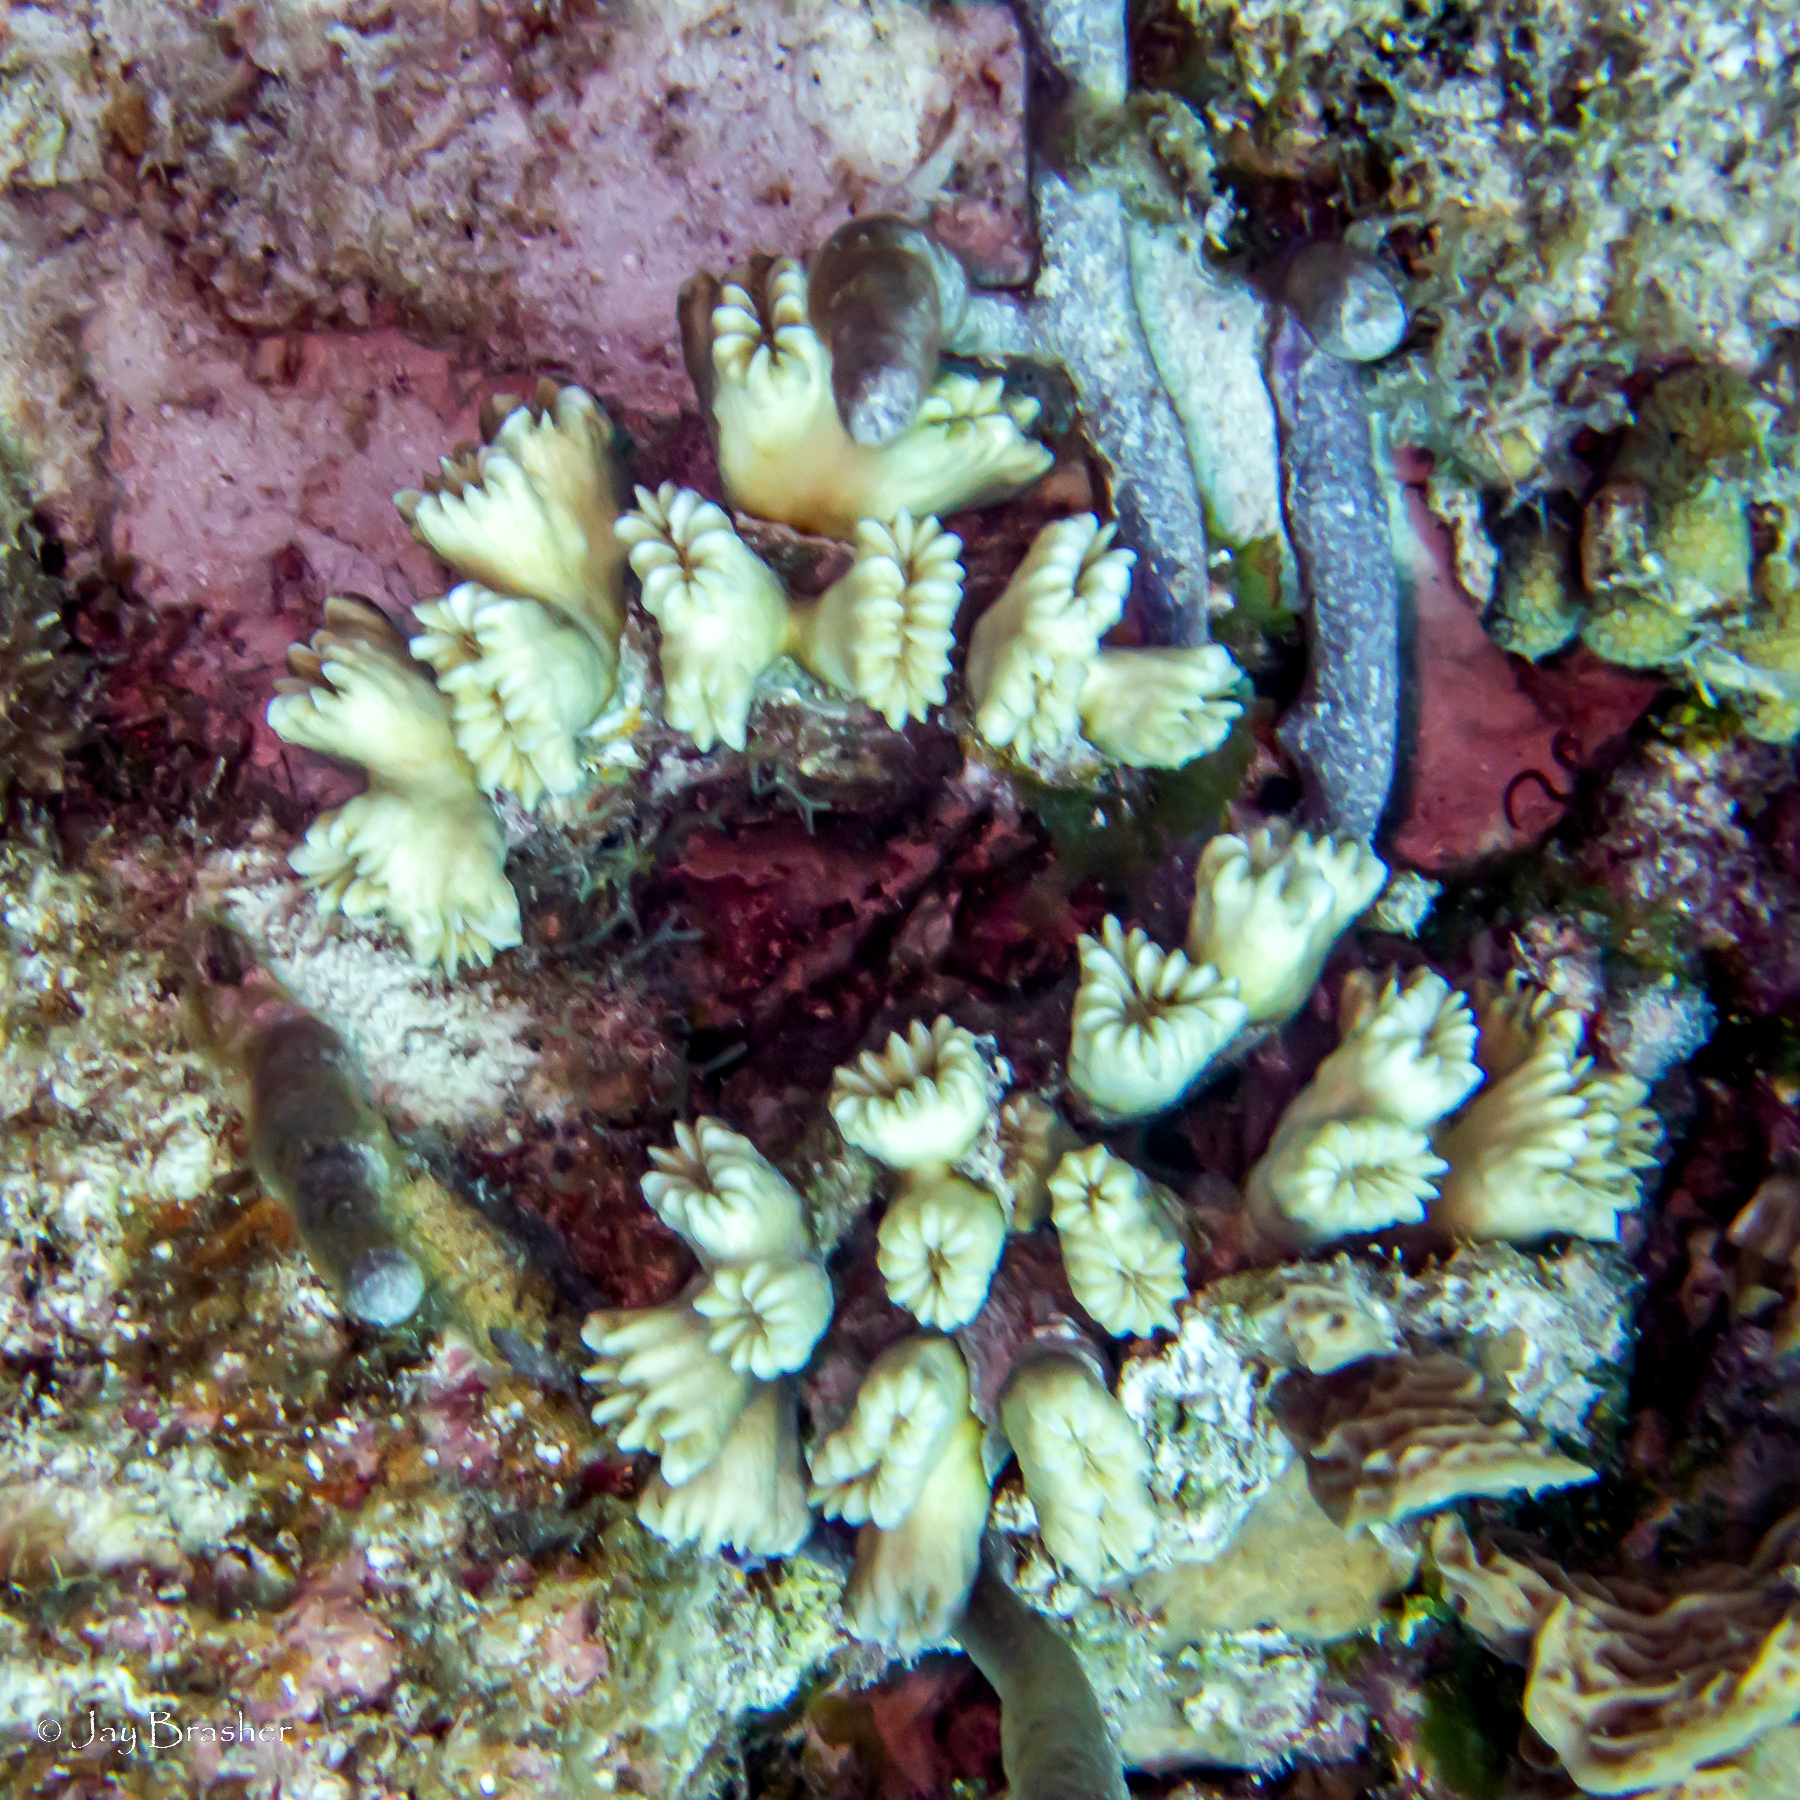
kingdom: Animalia
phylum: Cnidaria
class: Anthozoa
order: Scleractinia
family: Meandrinidae
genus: Eusmilia
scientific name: Eusmilia fastigiata
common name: Smooth flower coral
